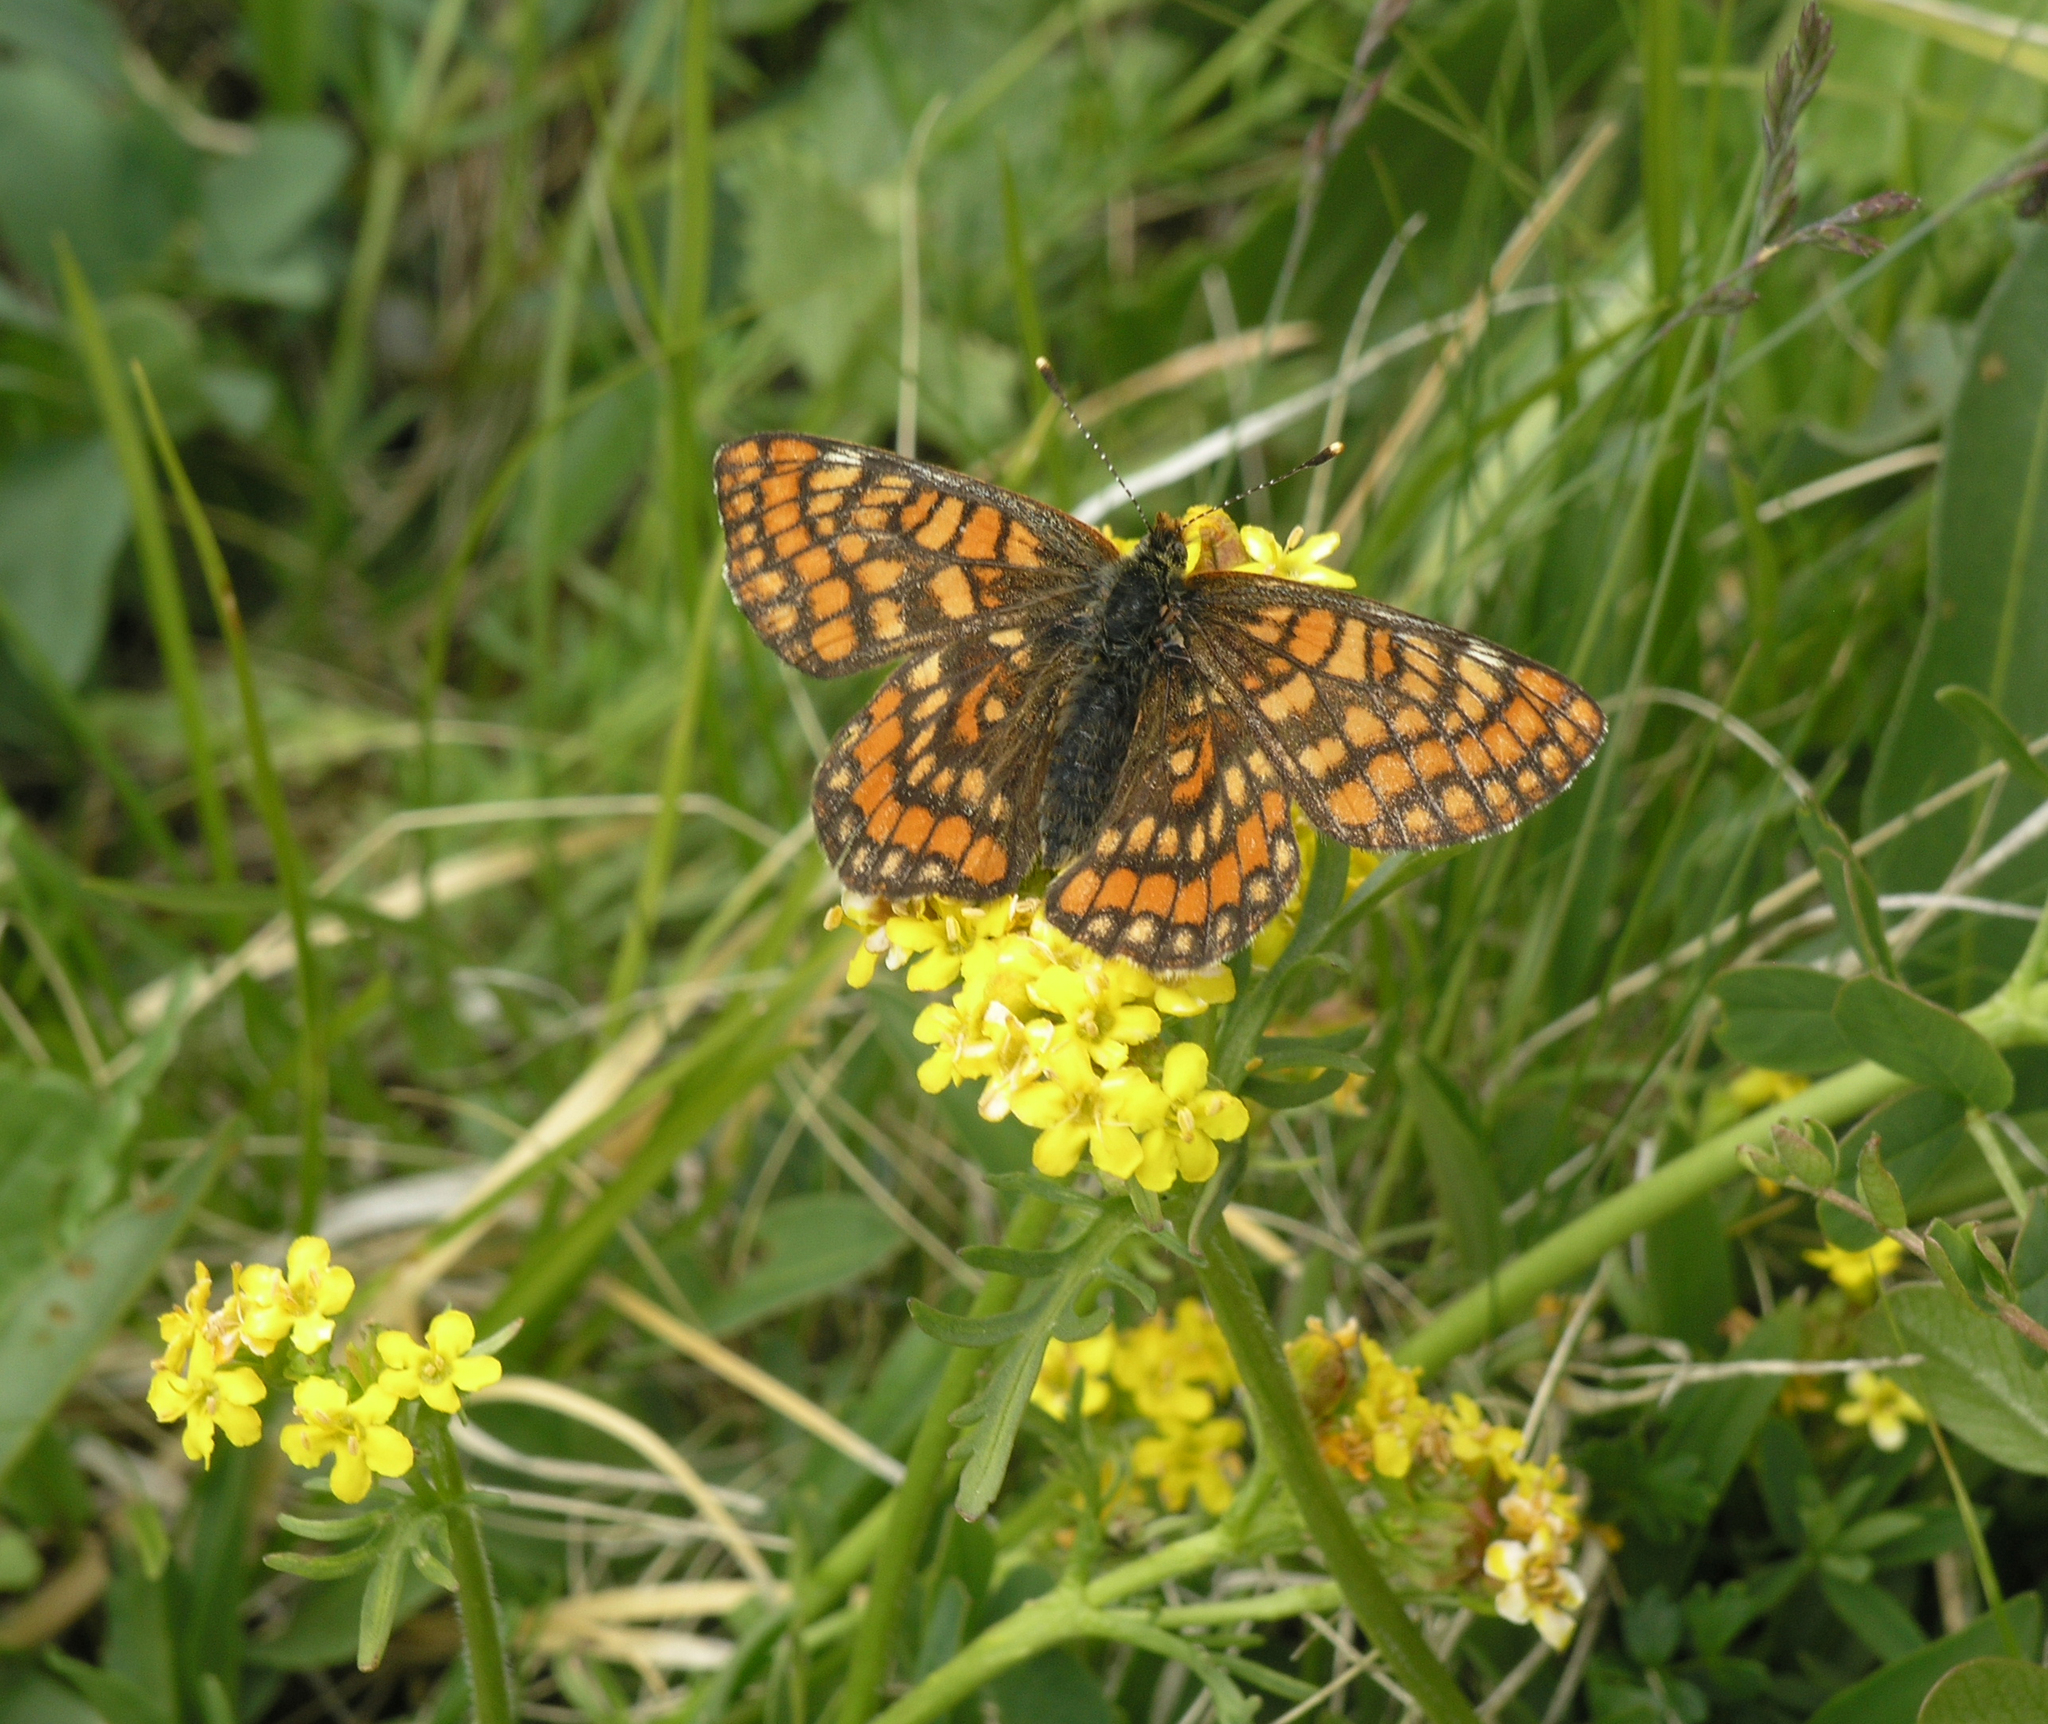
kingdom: Animalia
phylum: Arthropoda
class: Insecta
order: Lepidoptera
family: Nymphalidae
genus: Hypodryas
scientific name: Hypodryas intermedia
